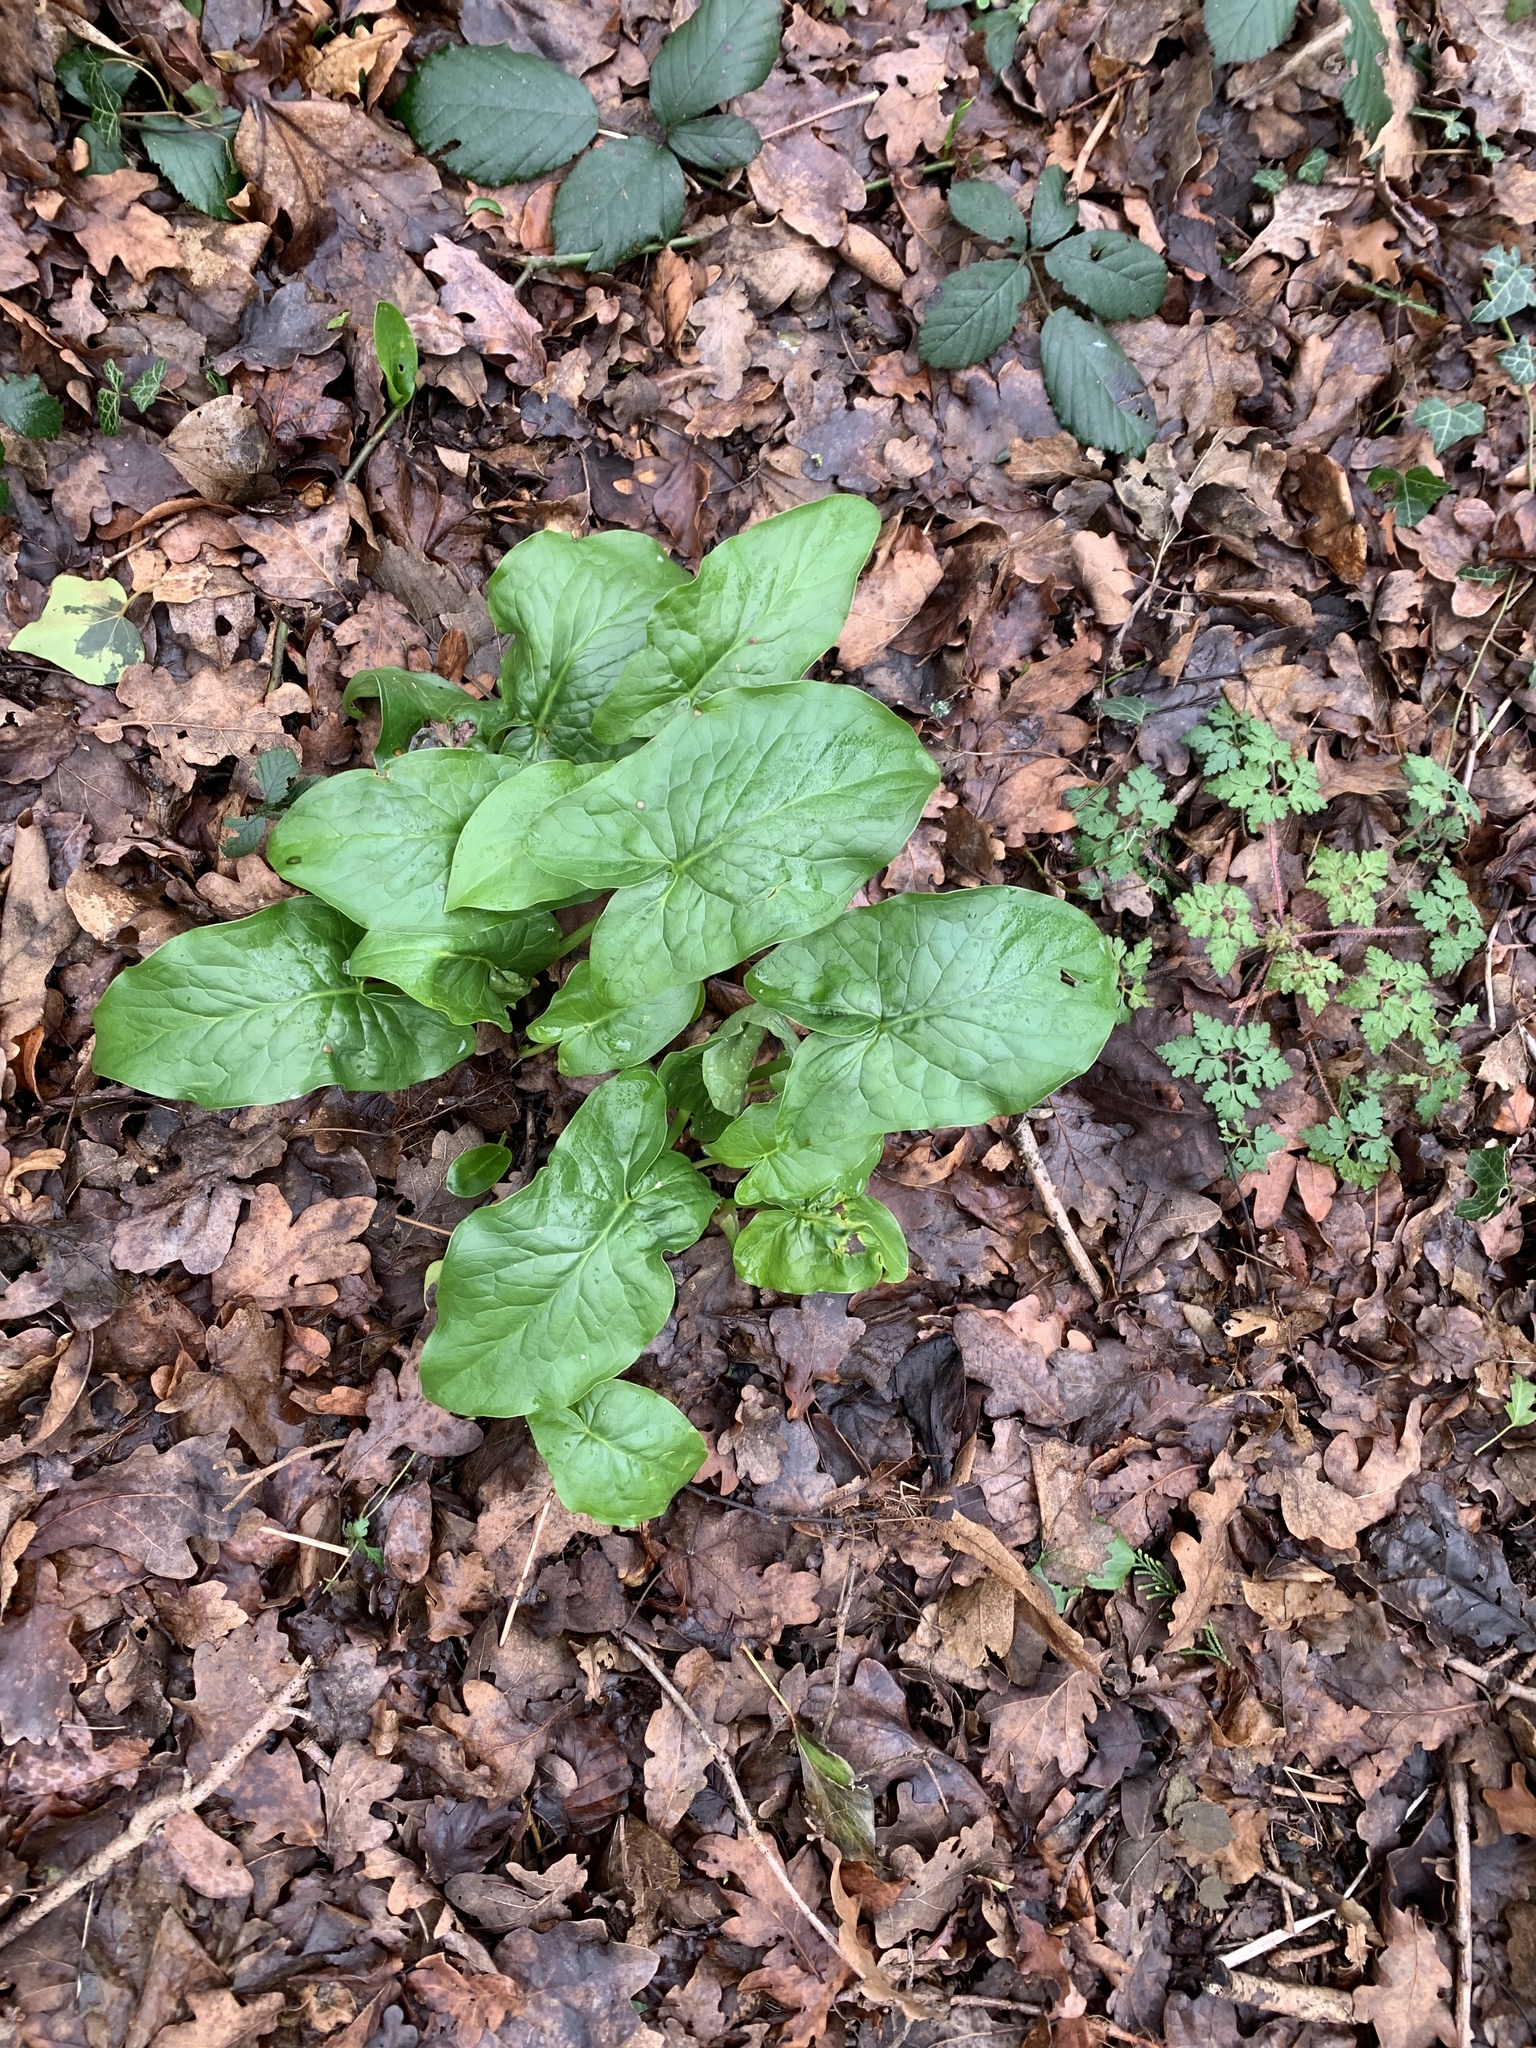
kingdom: Plantae
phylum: Tracheophyta
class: Liliopsida
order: Alismatales
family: Araceae
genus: Arum
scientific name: Arum maculatum
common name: Lords-and-ladies
